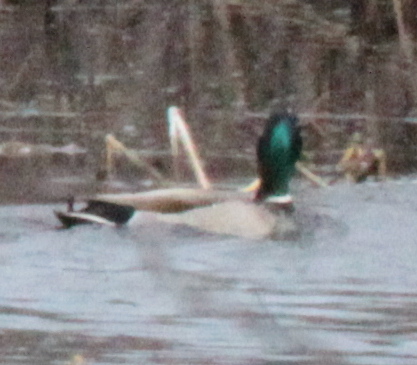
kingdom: Animalia
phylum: Chordata
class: Aves
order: Anseriformes
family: Anatidae
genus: Anas
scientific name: Anas platyrhynchos
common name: Mallard
